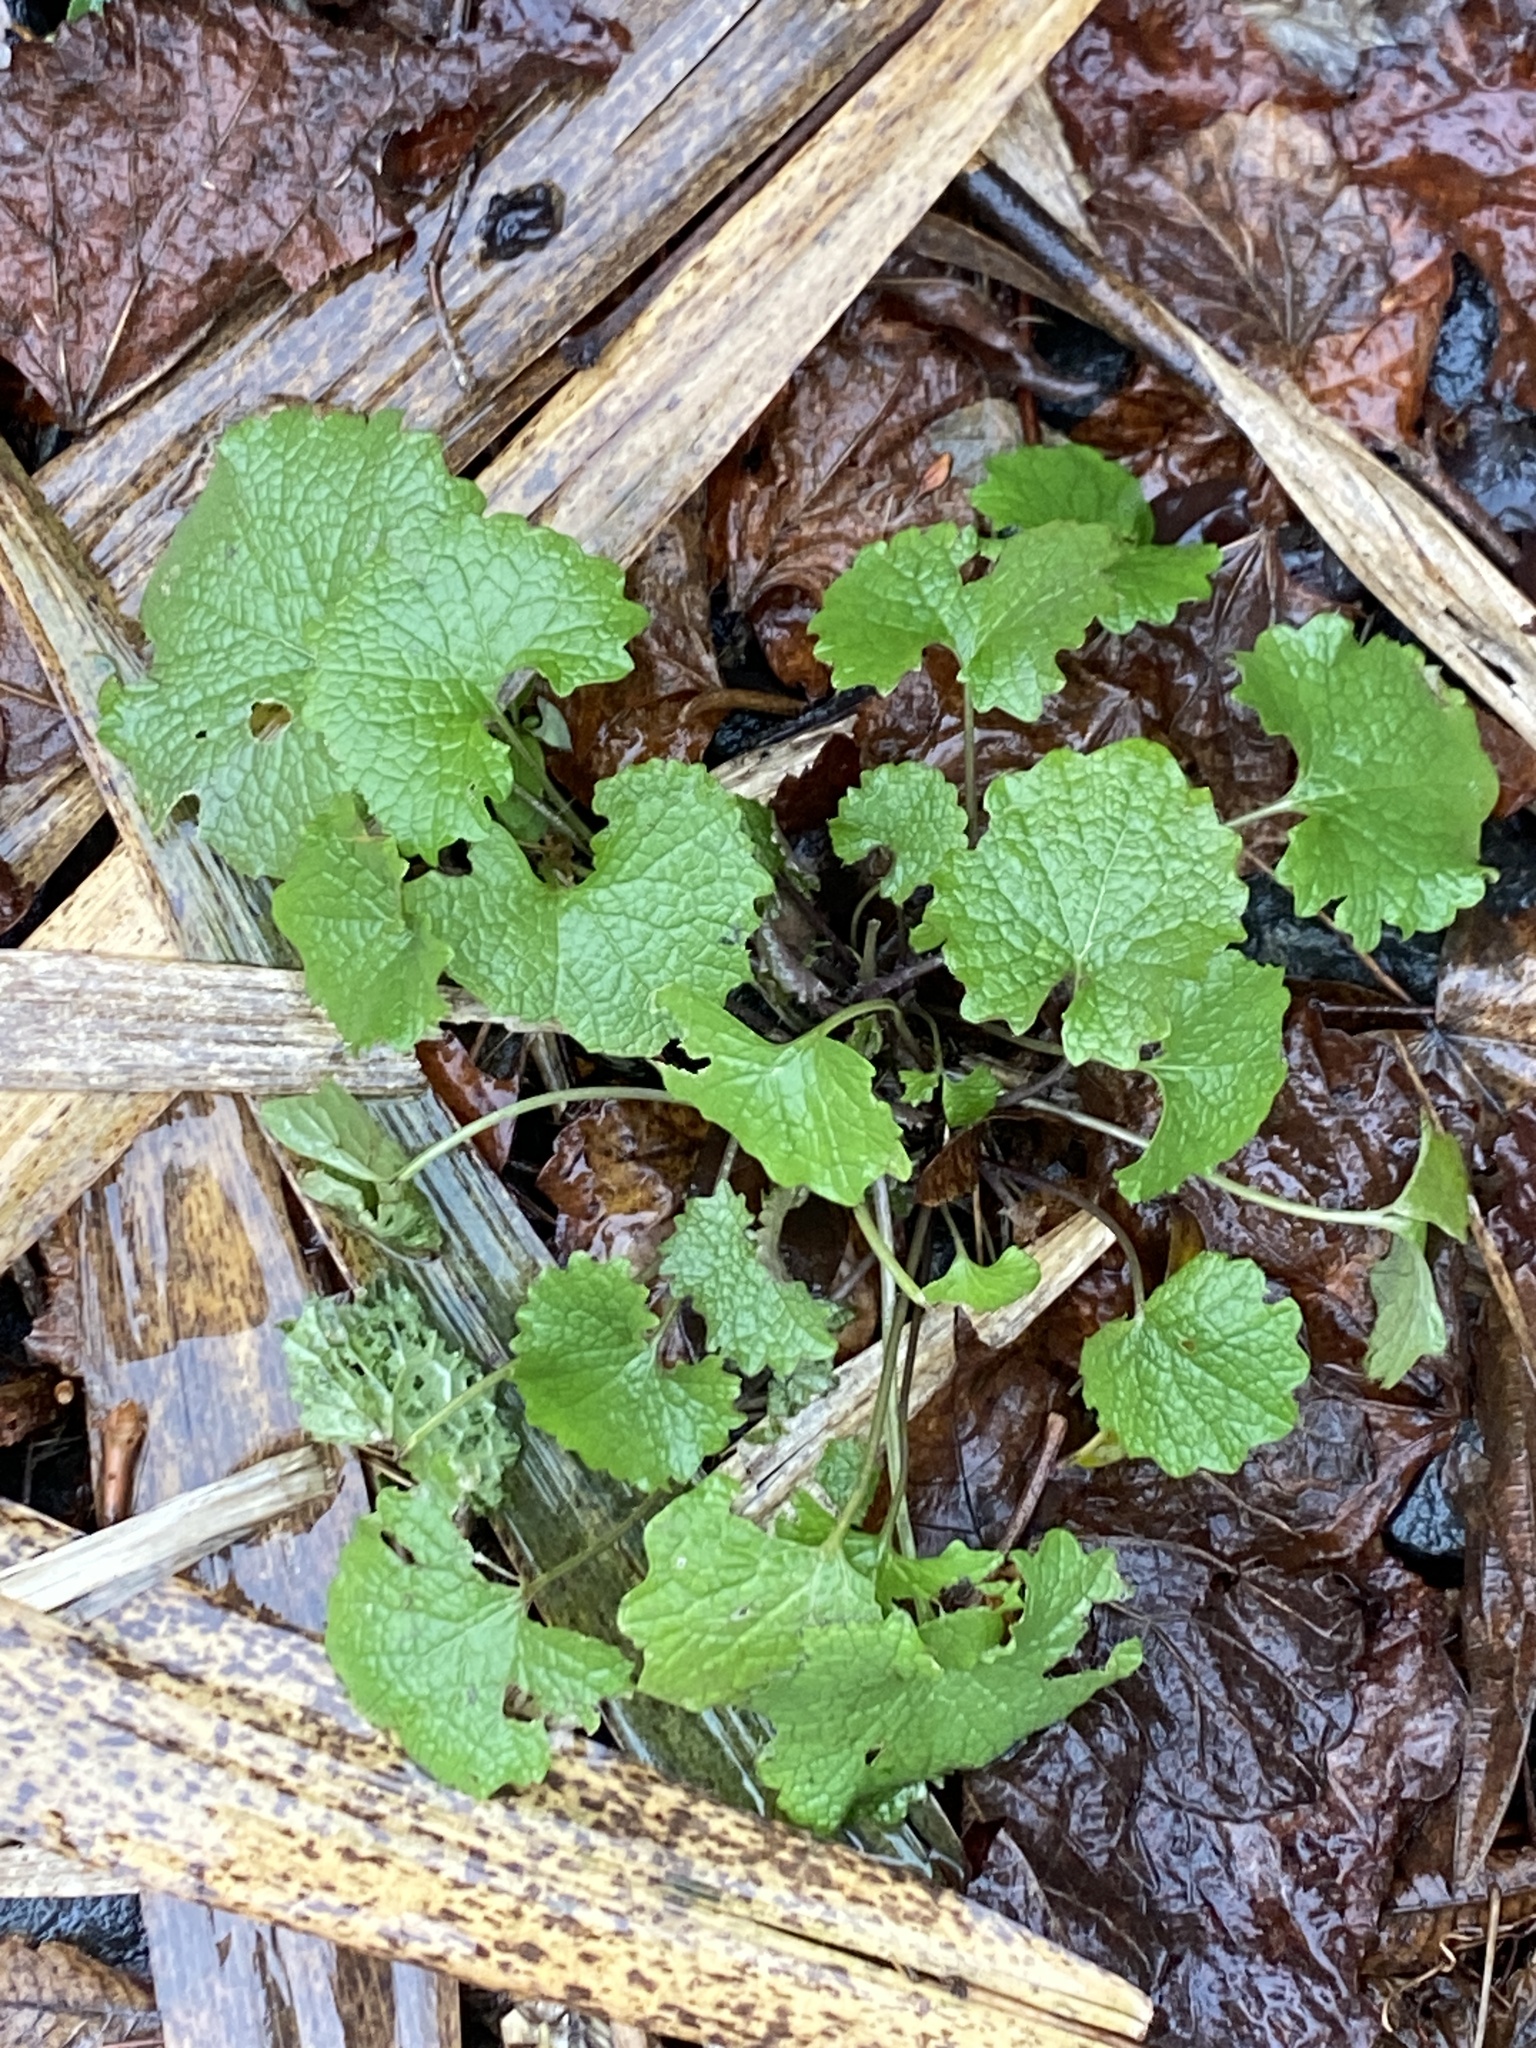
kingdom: Plantae
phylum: Tracheophyta
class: Magnoliopsida
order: Brassicales
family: Brassicaceae
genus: Alliaria
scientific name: Alliaria petiolata
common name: Garlic mustard
